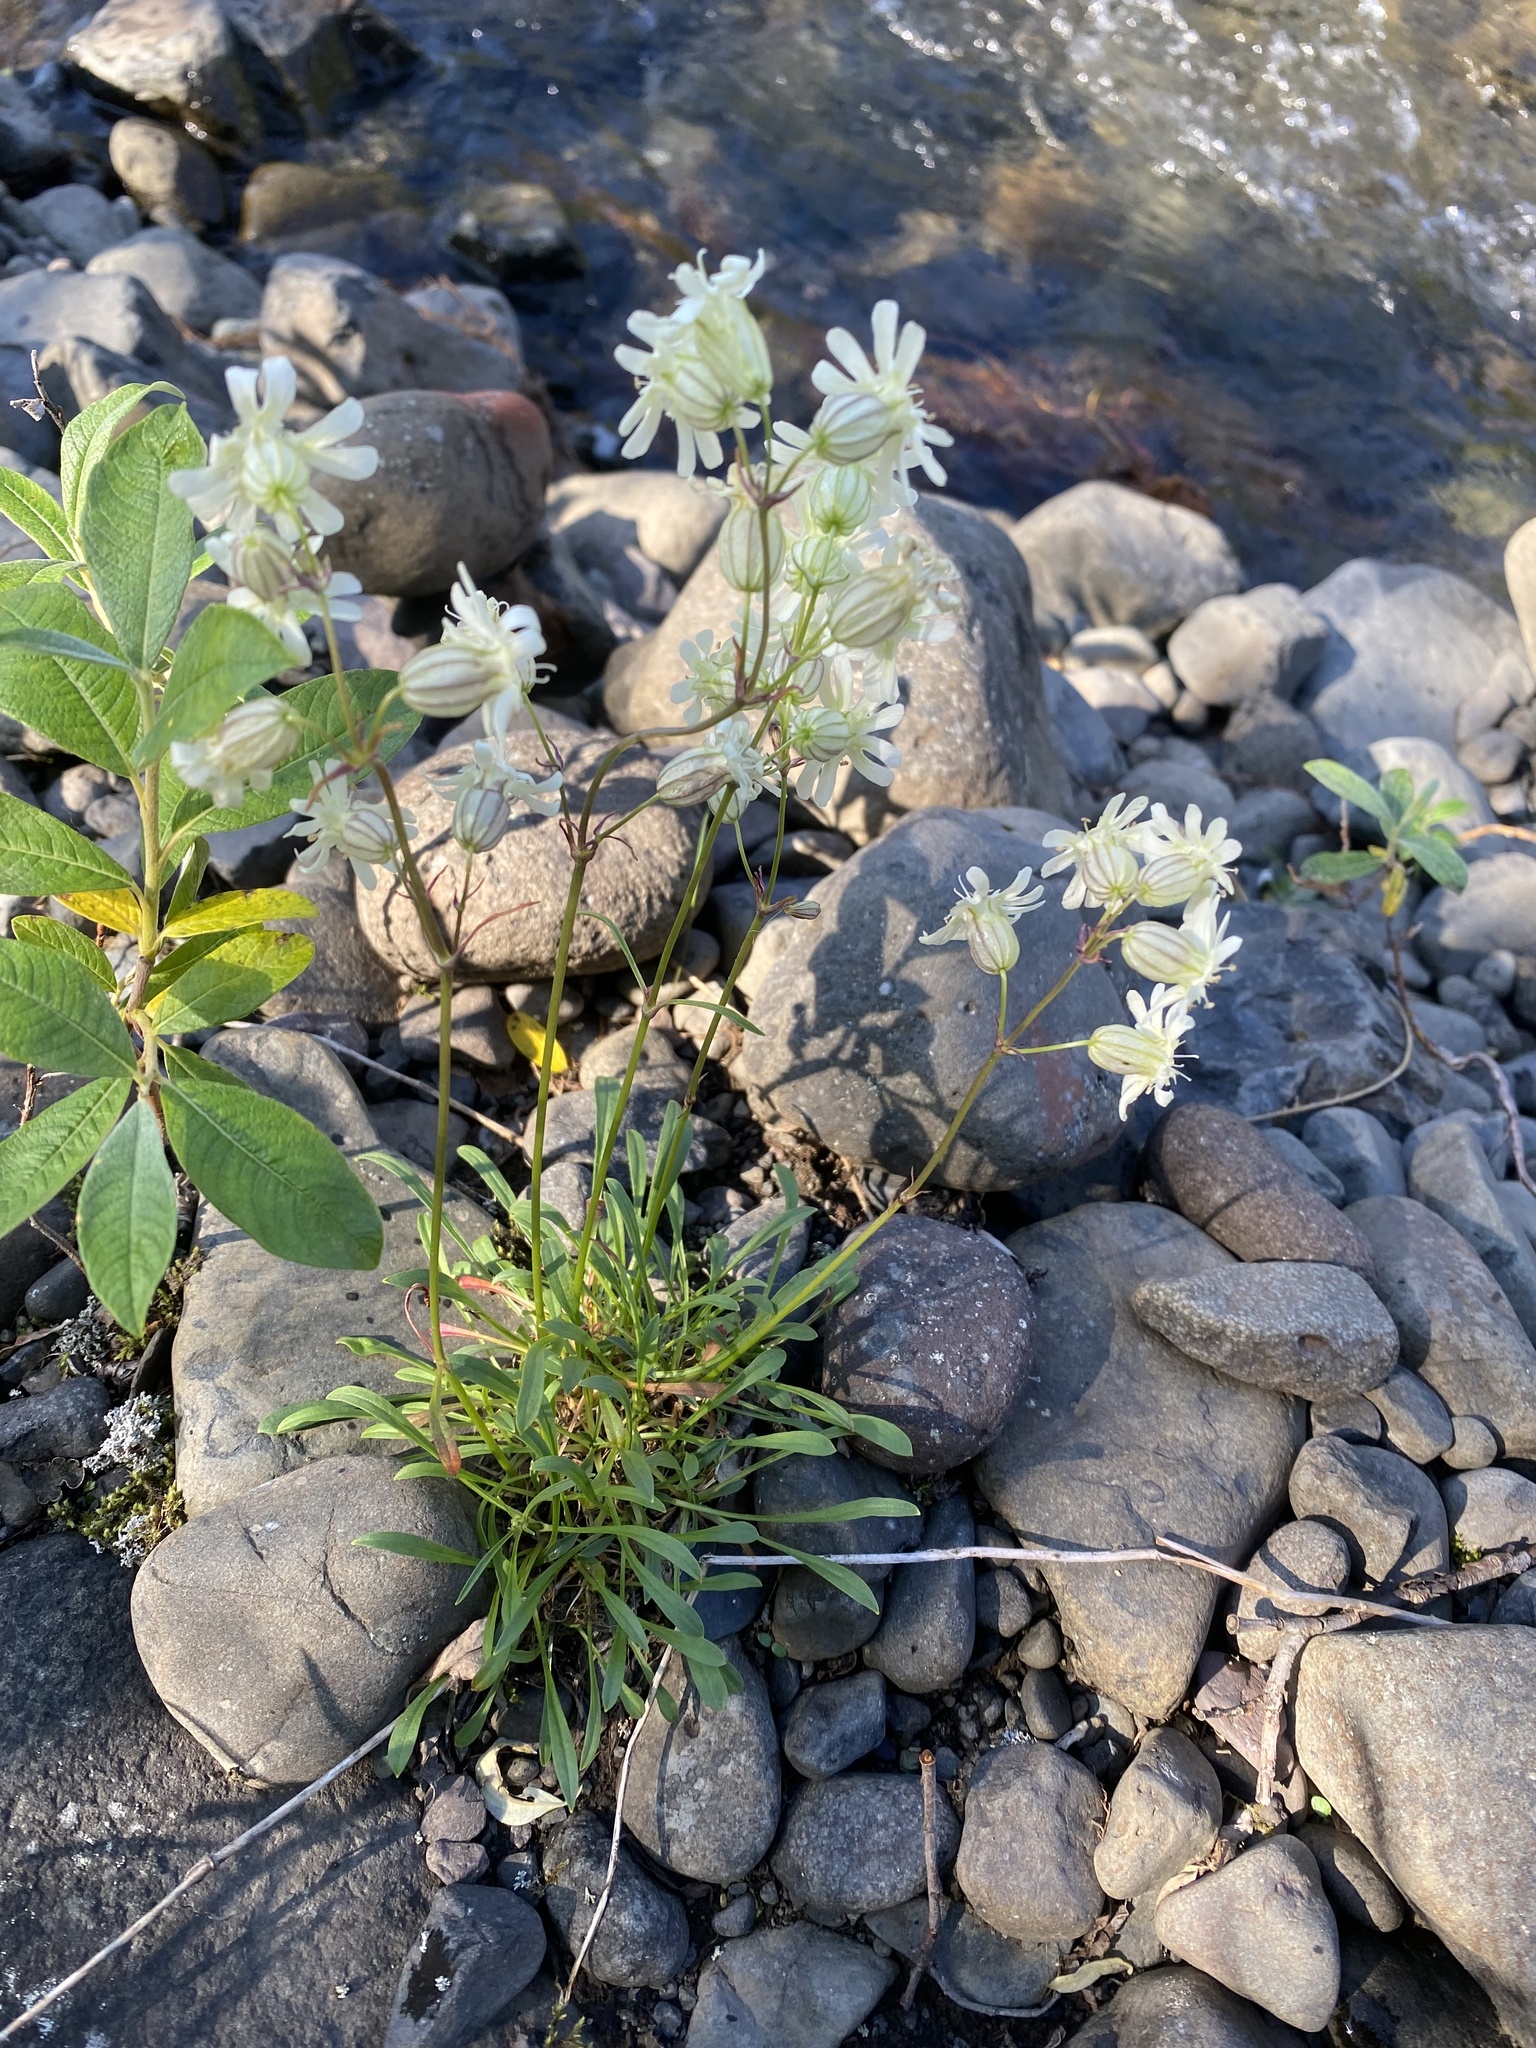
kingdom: Plantae
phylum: Tracheophyta
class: Magnoliopsida
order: Caryophyllales
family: Caryophyllaceae
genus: Silene
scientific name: Silene chamarensis
